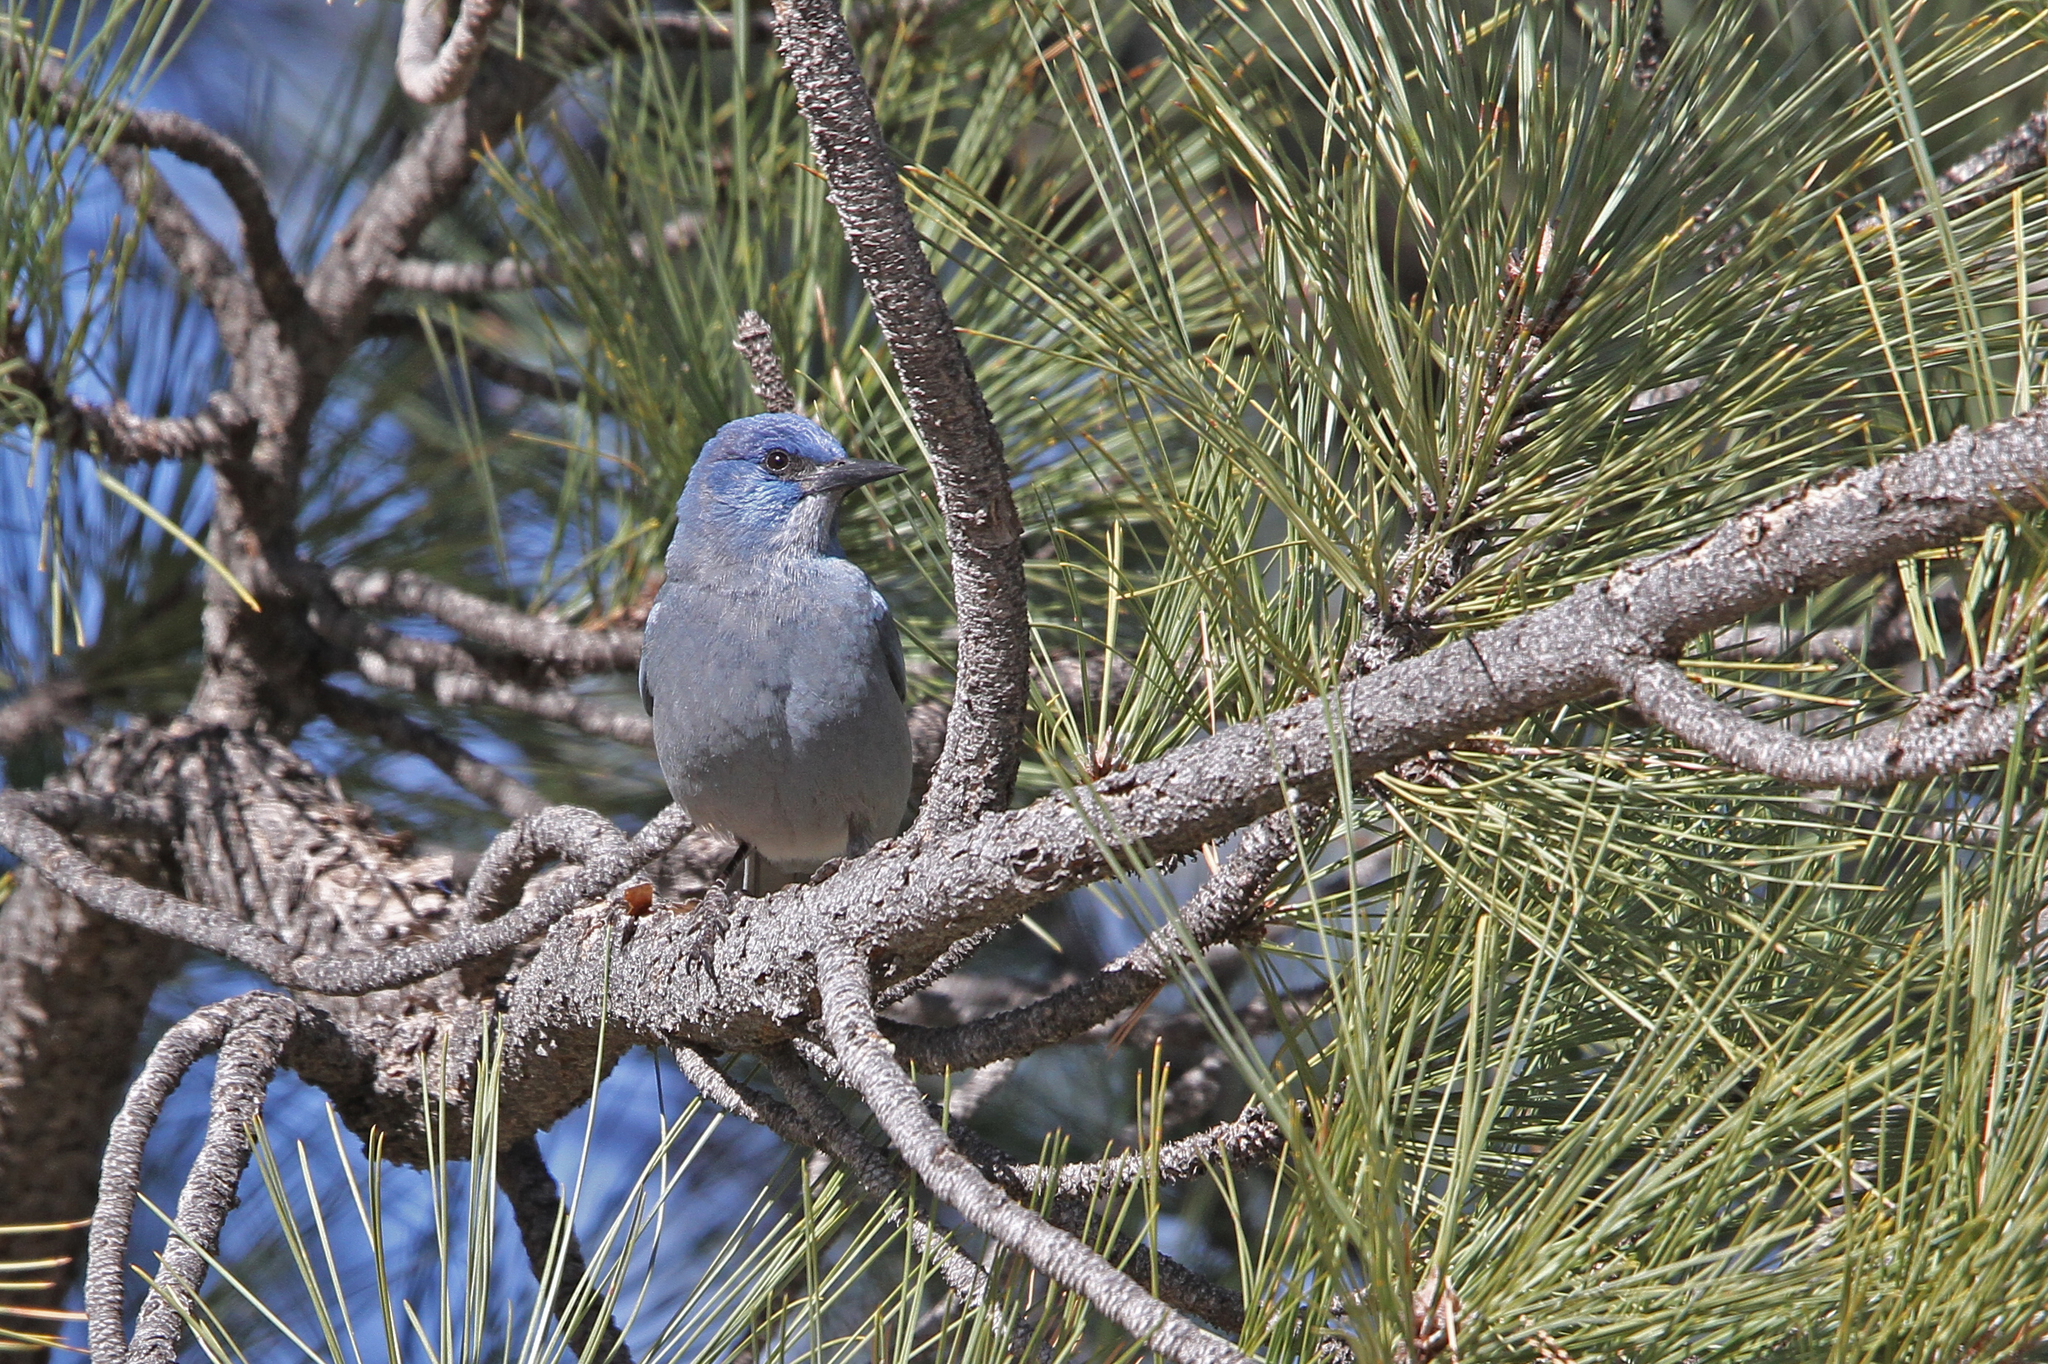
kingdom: Animalia
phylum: Chordata
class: Aves
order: Passeriformes
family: Corvidae
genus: Gymnorhinus
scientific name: Gymnorhinus cyanocephalus
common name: Pinyon jay
